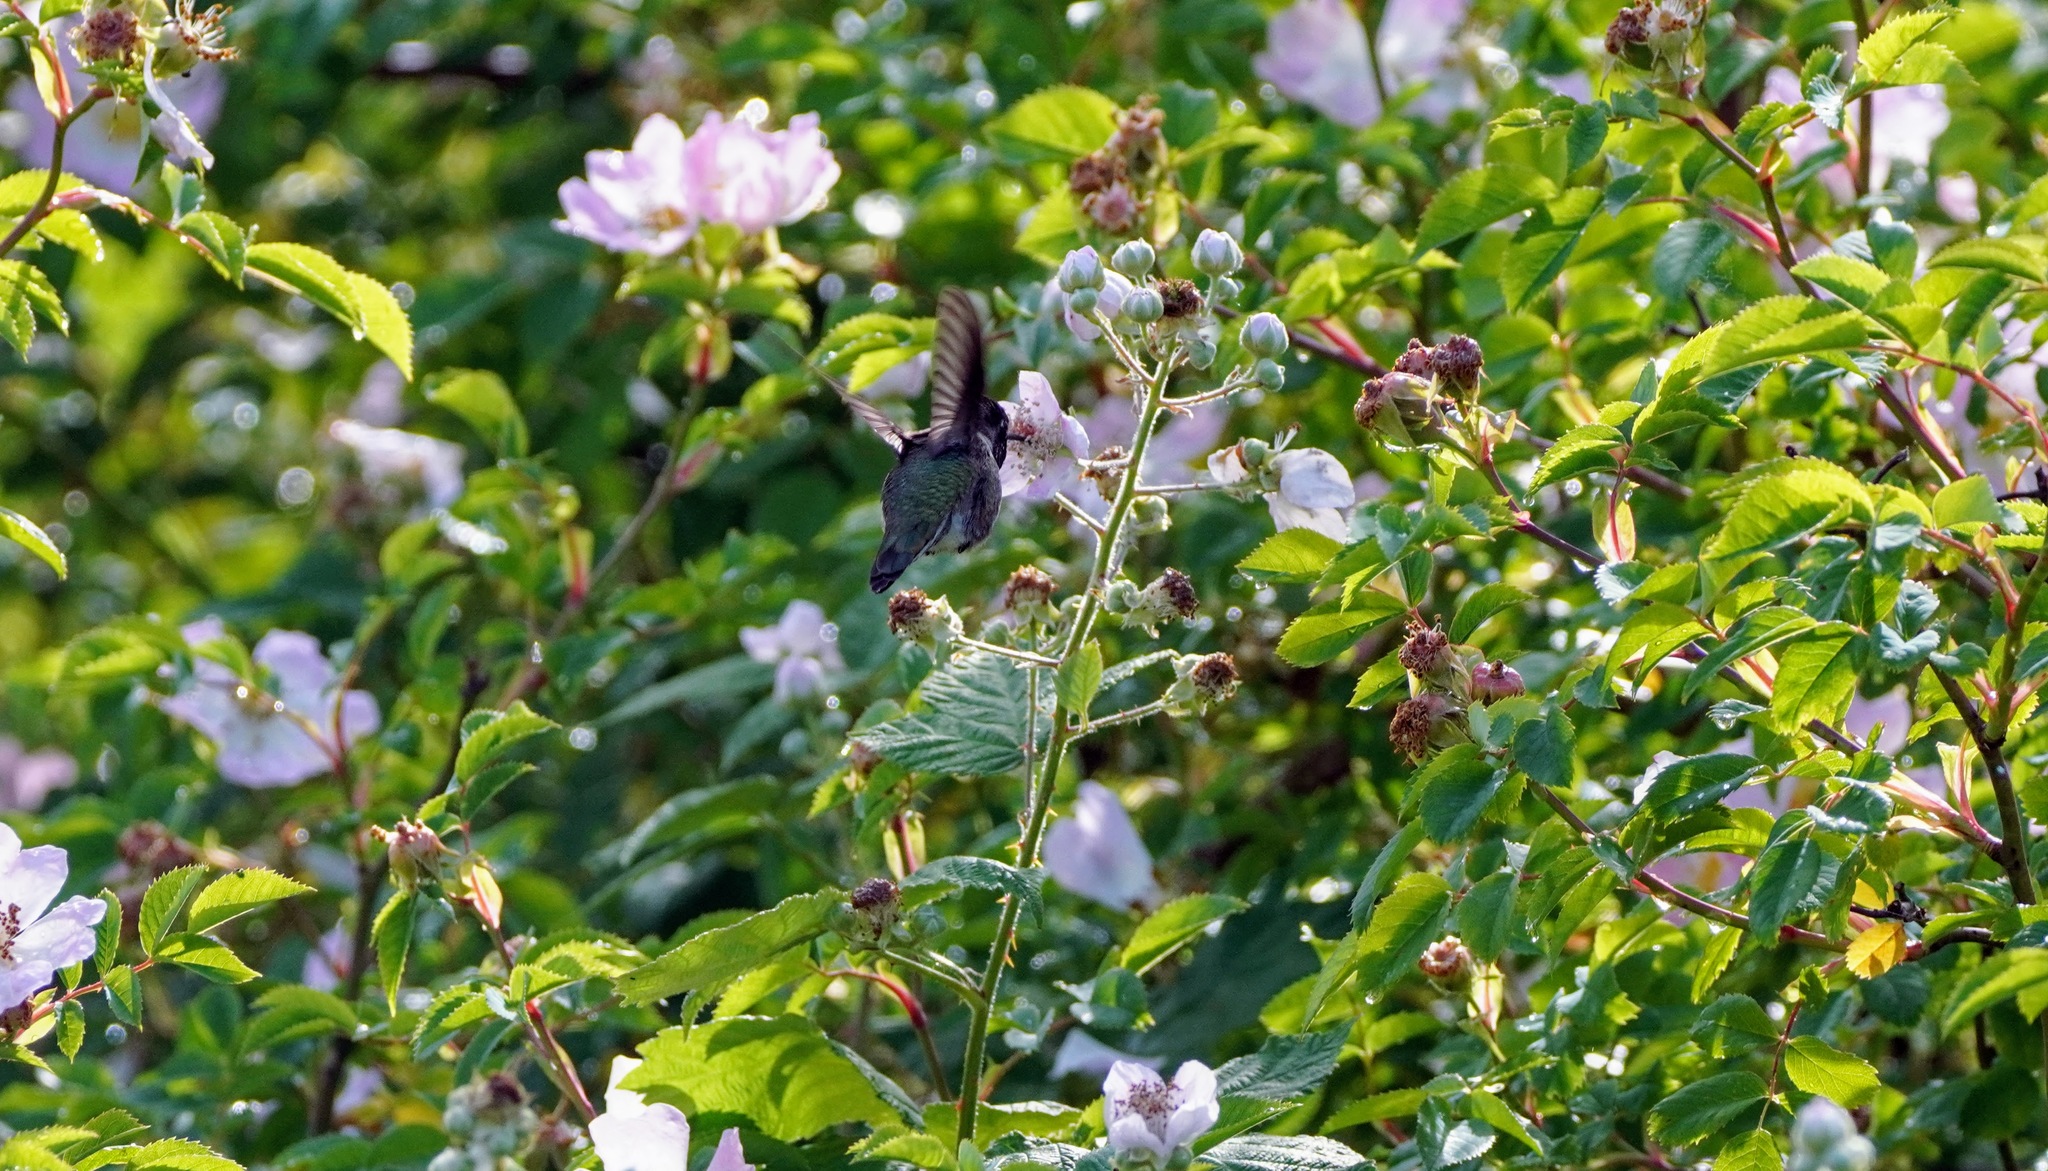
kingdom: Animalia
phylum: Chordata
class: Aves
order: Apodiformes
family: Trochilidae
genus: Calypte
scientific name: Calypte anna
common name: Anna's hummingbird
